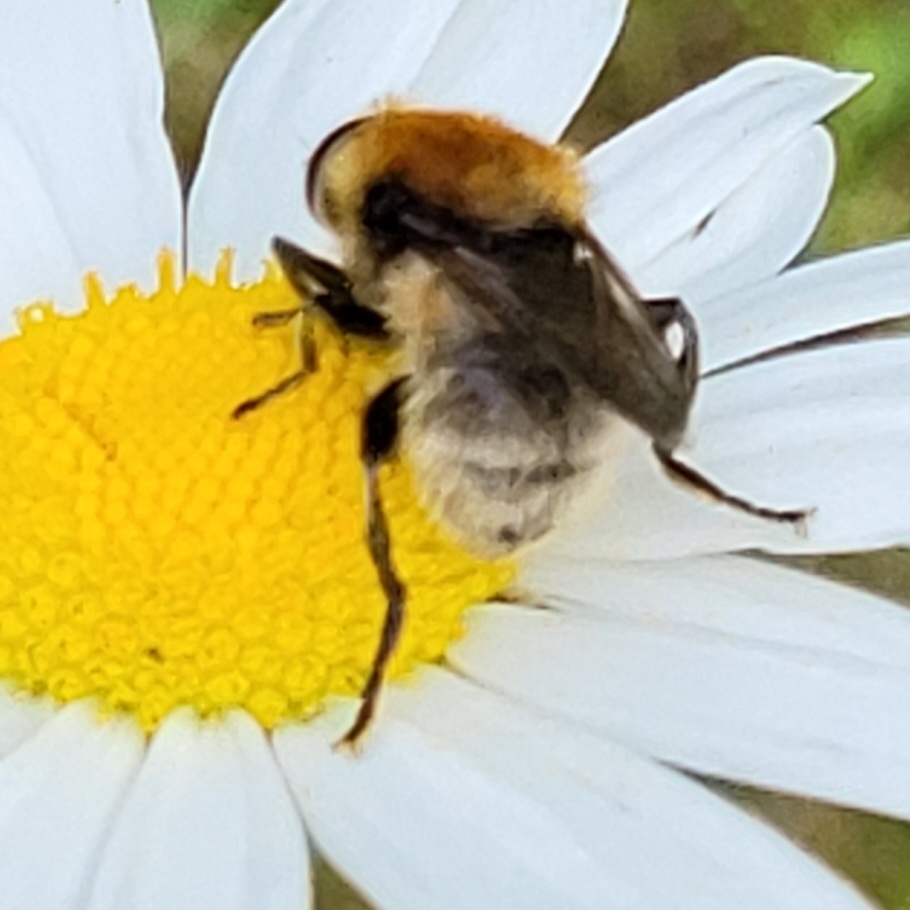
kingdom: Animalia
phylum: Arthropoda
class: Insecta
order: Diptera
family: Syrphidae
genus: Merodon
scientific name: Merodon equestris
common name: Greater bulb-fly
